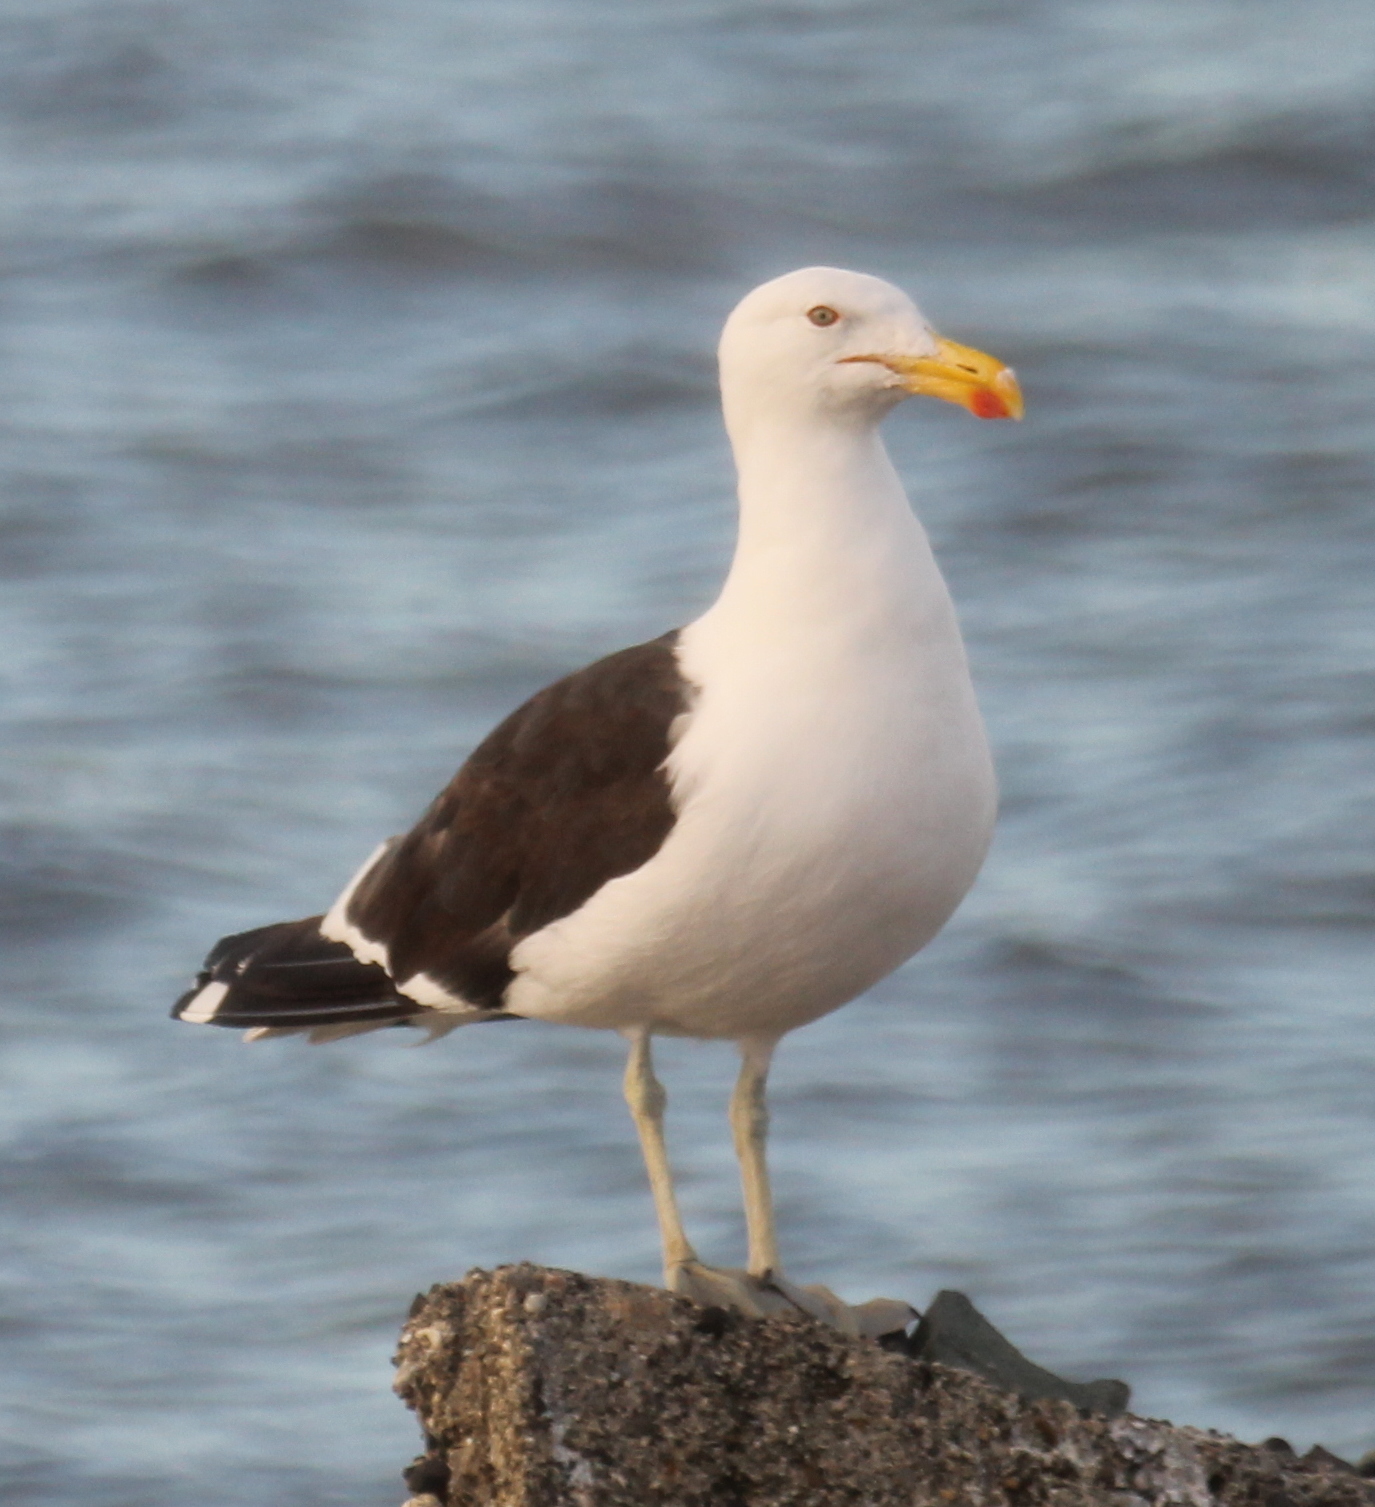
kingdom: Animalia
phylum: Chordata
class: Aves
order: Charadriiformes
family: Laridae
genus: Larus
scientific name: Larus dominicanus
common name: Kelp gull
